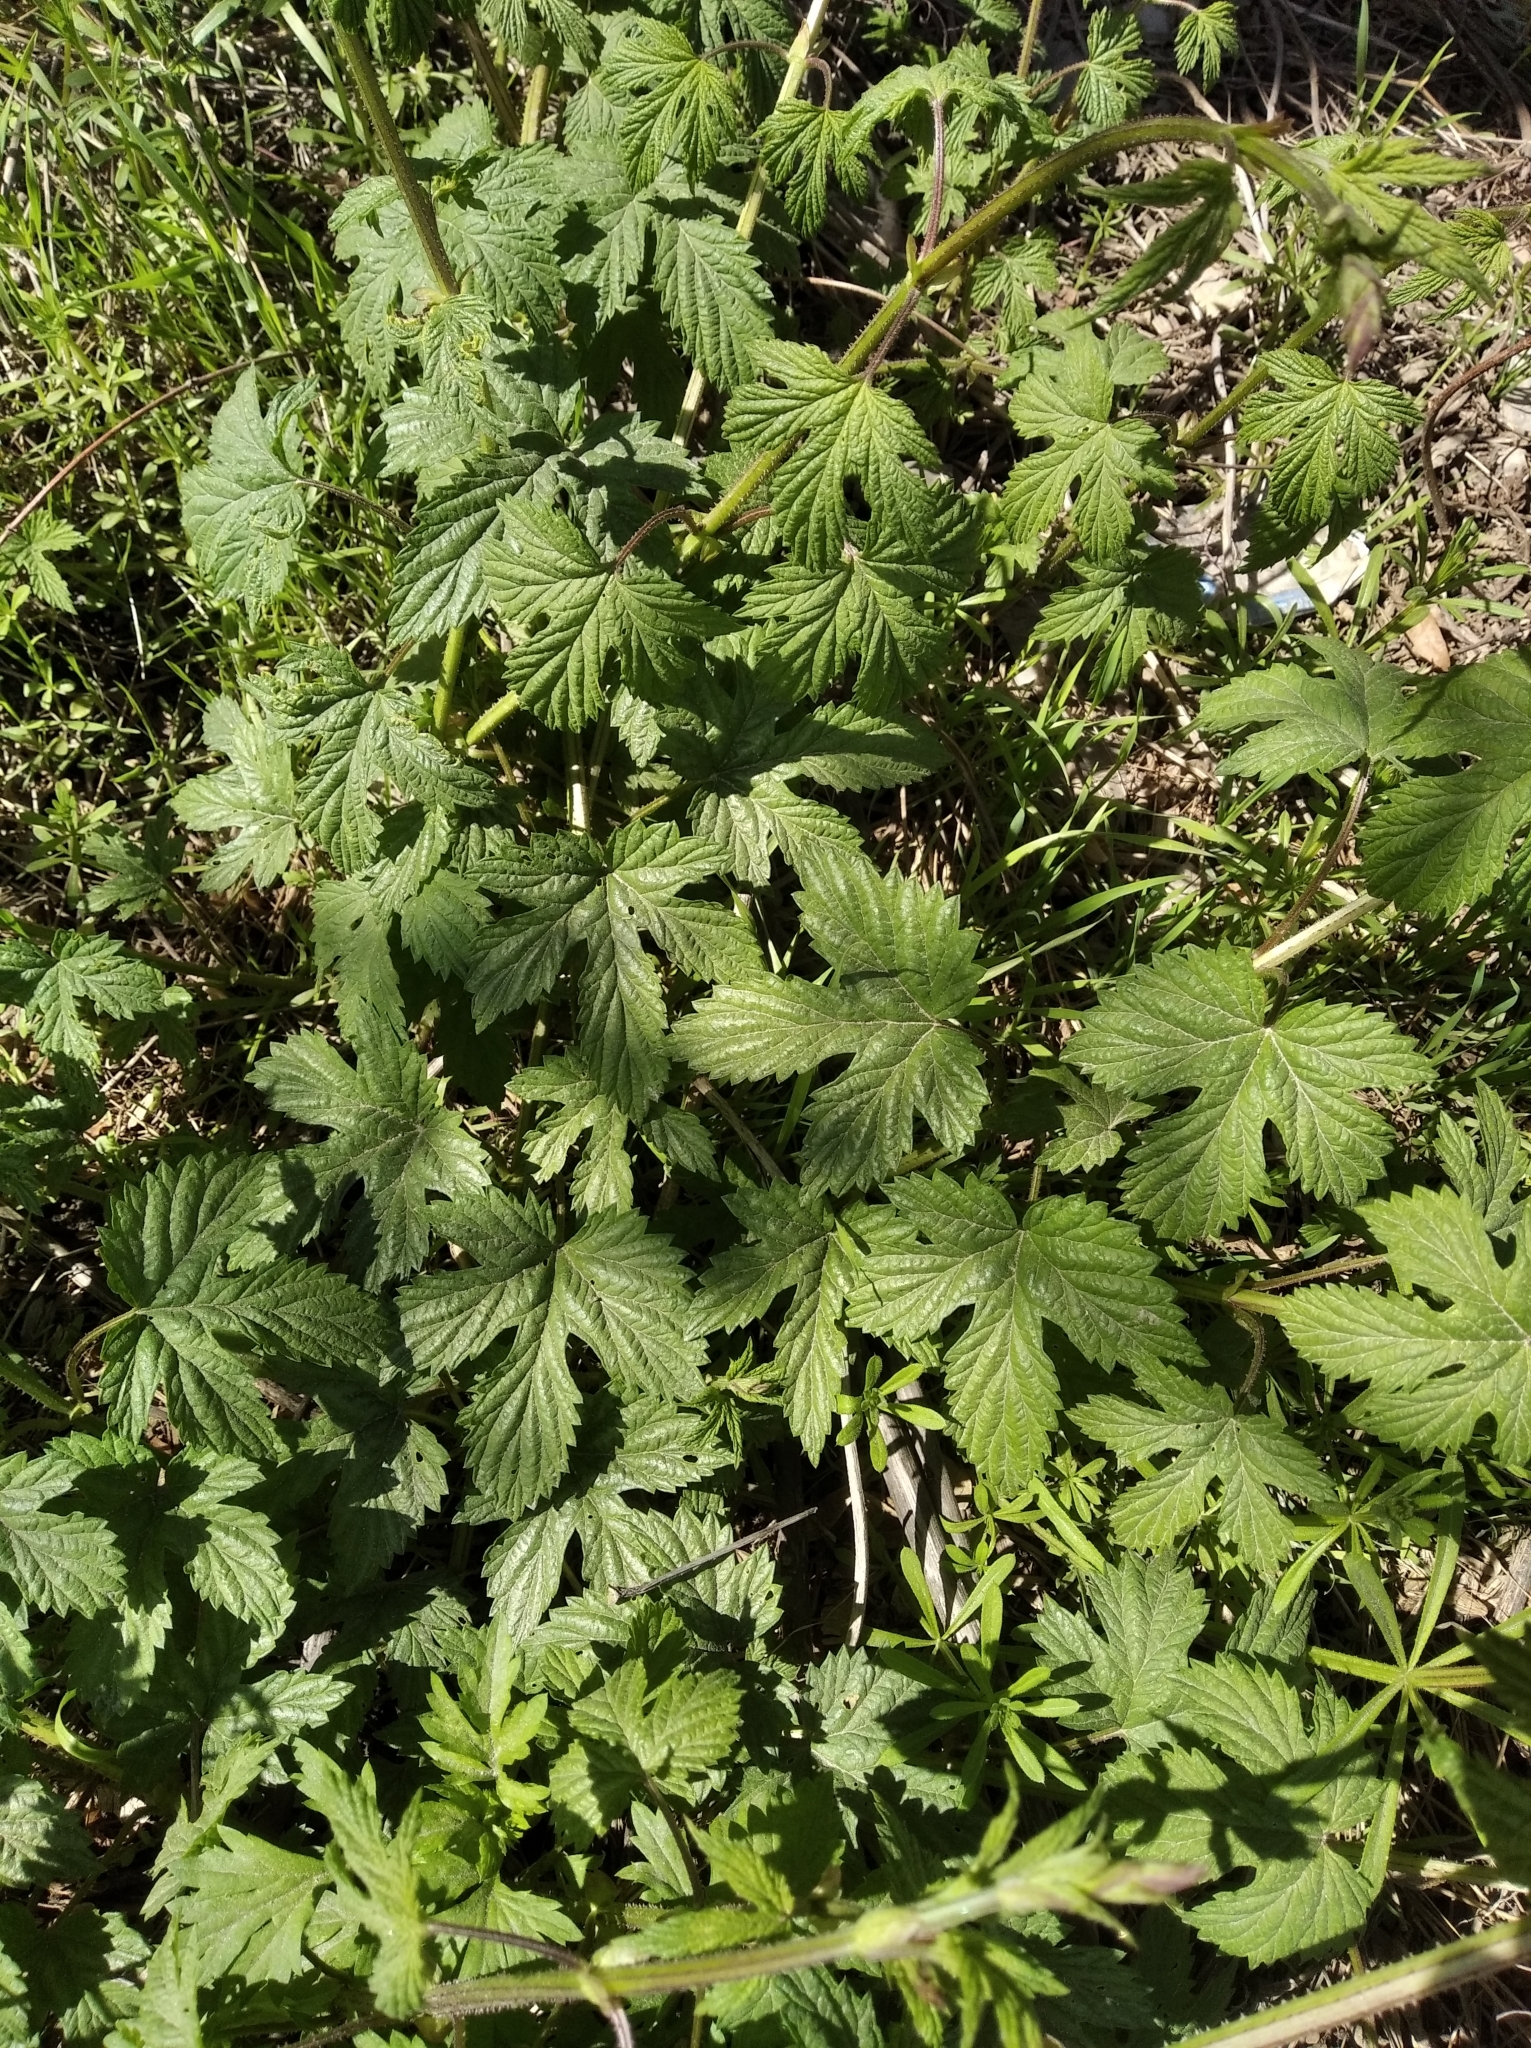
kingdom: Plantae
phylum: Tracheophyta
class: Magnoliopsida
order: Rosales
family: Cannabaceae
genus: Humulus
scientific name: Humulus lupulus
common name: Hop
